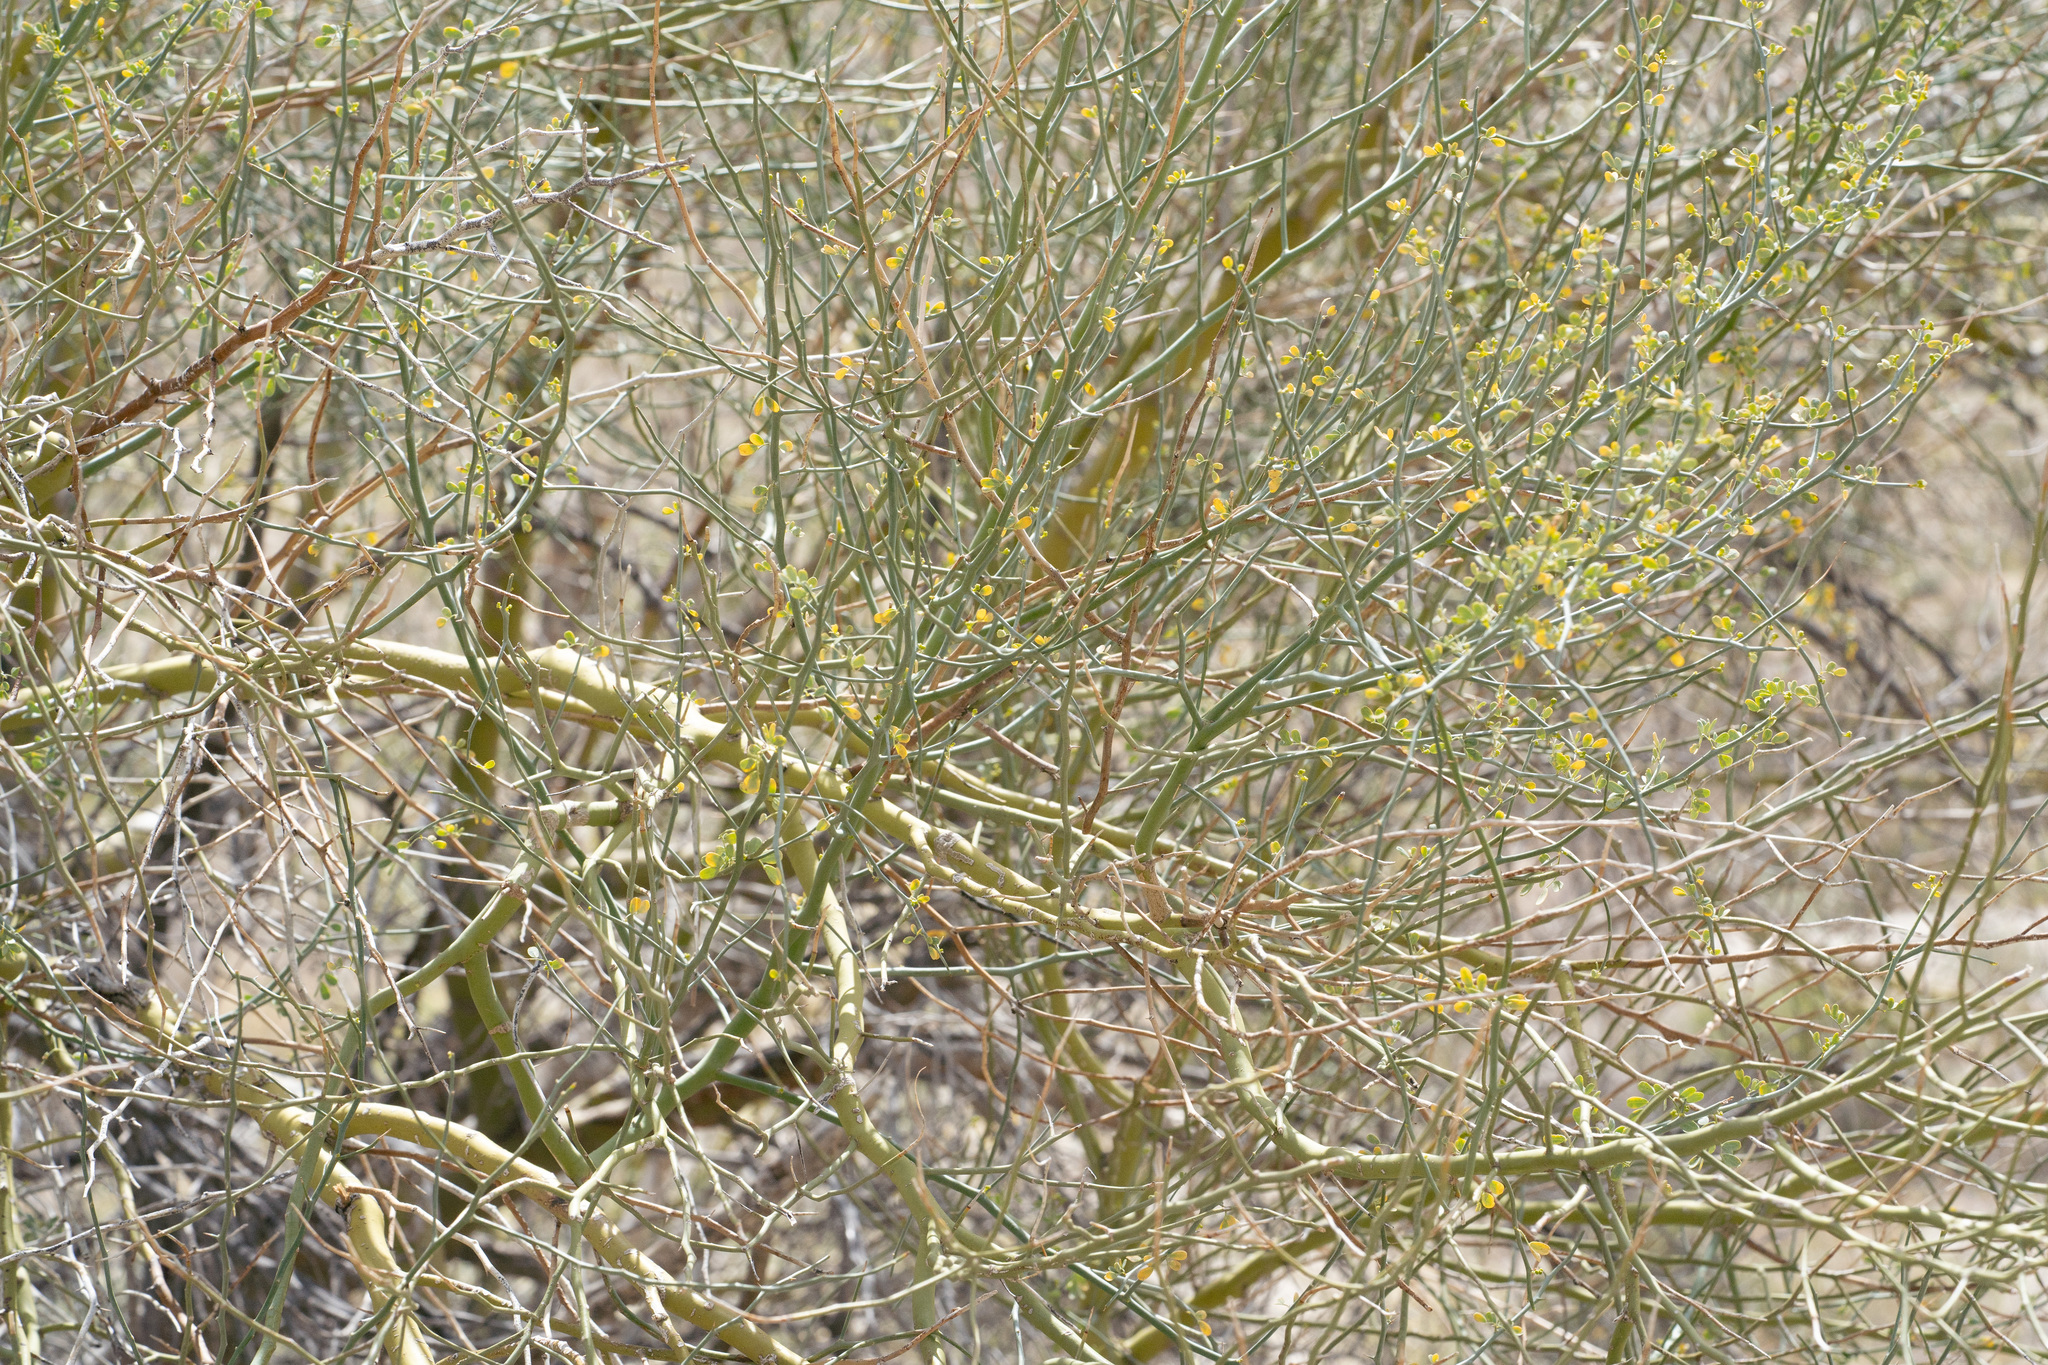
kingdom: Plantae
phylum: Tracheophyta
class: Magnoliopsida
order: Fabales
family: Fabaceae
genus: Parkinsonia
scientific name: Parkinsonia florida
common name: Blue paloverde
